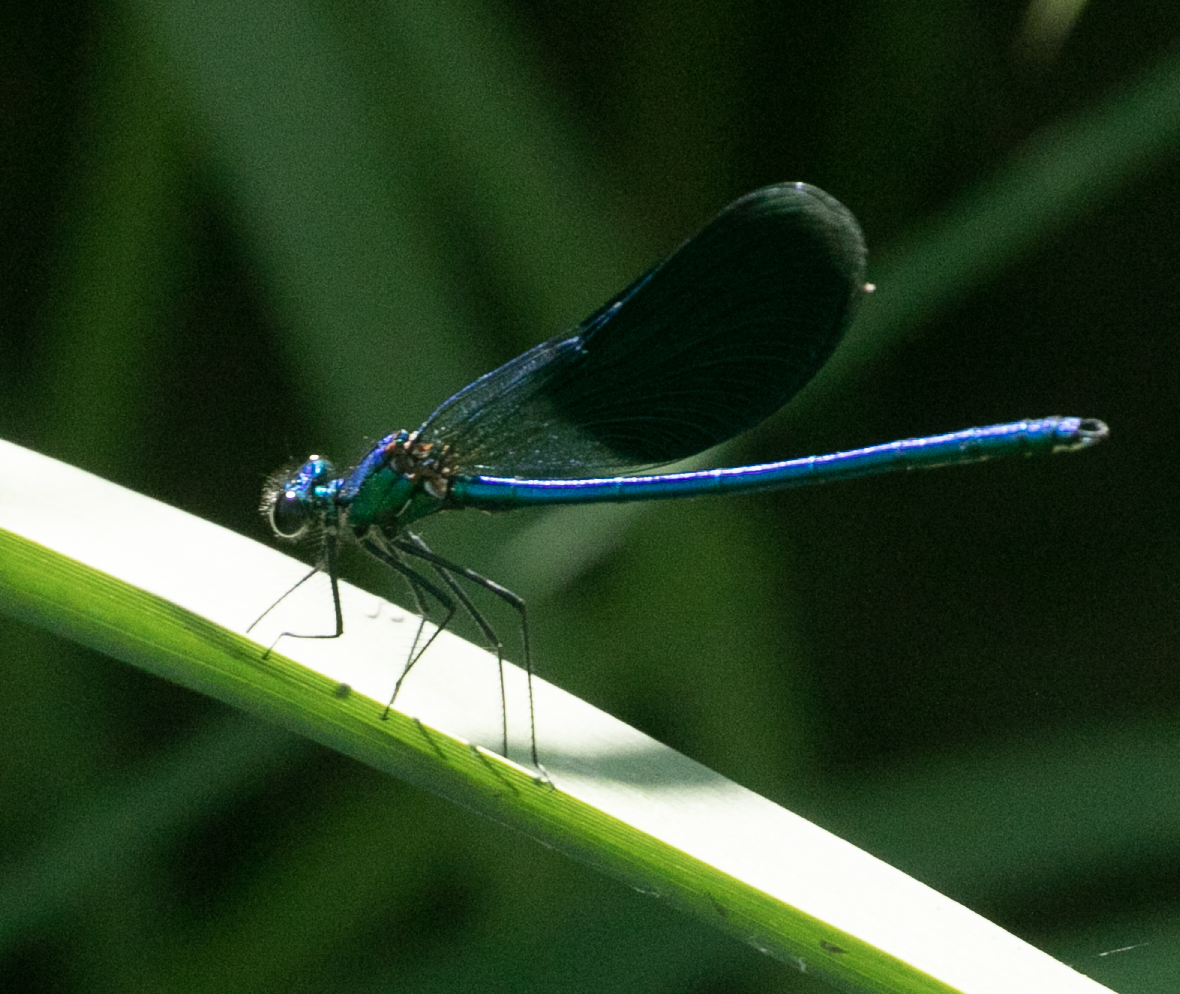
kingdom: Animalia
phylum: Arthropoda
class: Insecta
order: Odonata
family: Calopterygidae
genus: Calopteryx
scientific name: Calopteryx splendens
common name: Banded demoiselle
